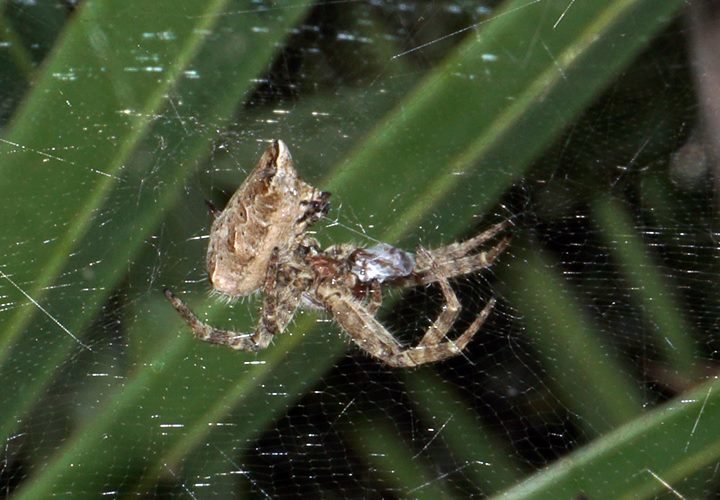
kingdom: Animalia
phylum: Arthropoda
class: Arachnida
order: Araneae
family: Araneidae
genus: Cyrtophora
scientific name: Cyrtophora citricola
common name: Orb weavers
